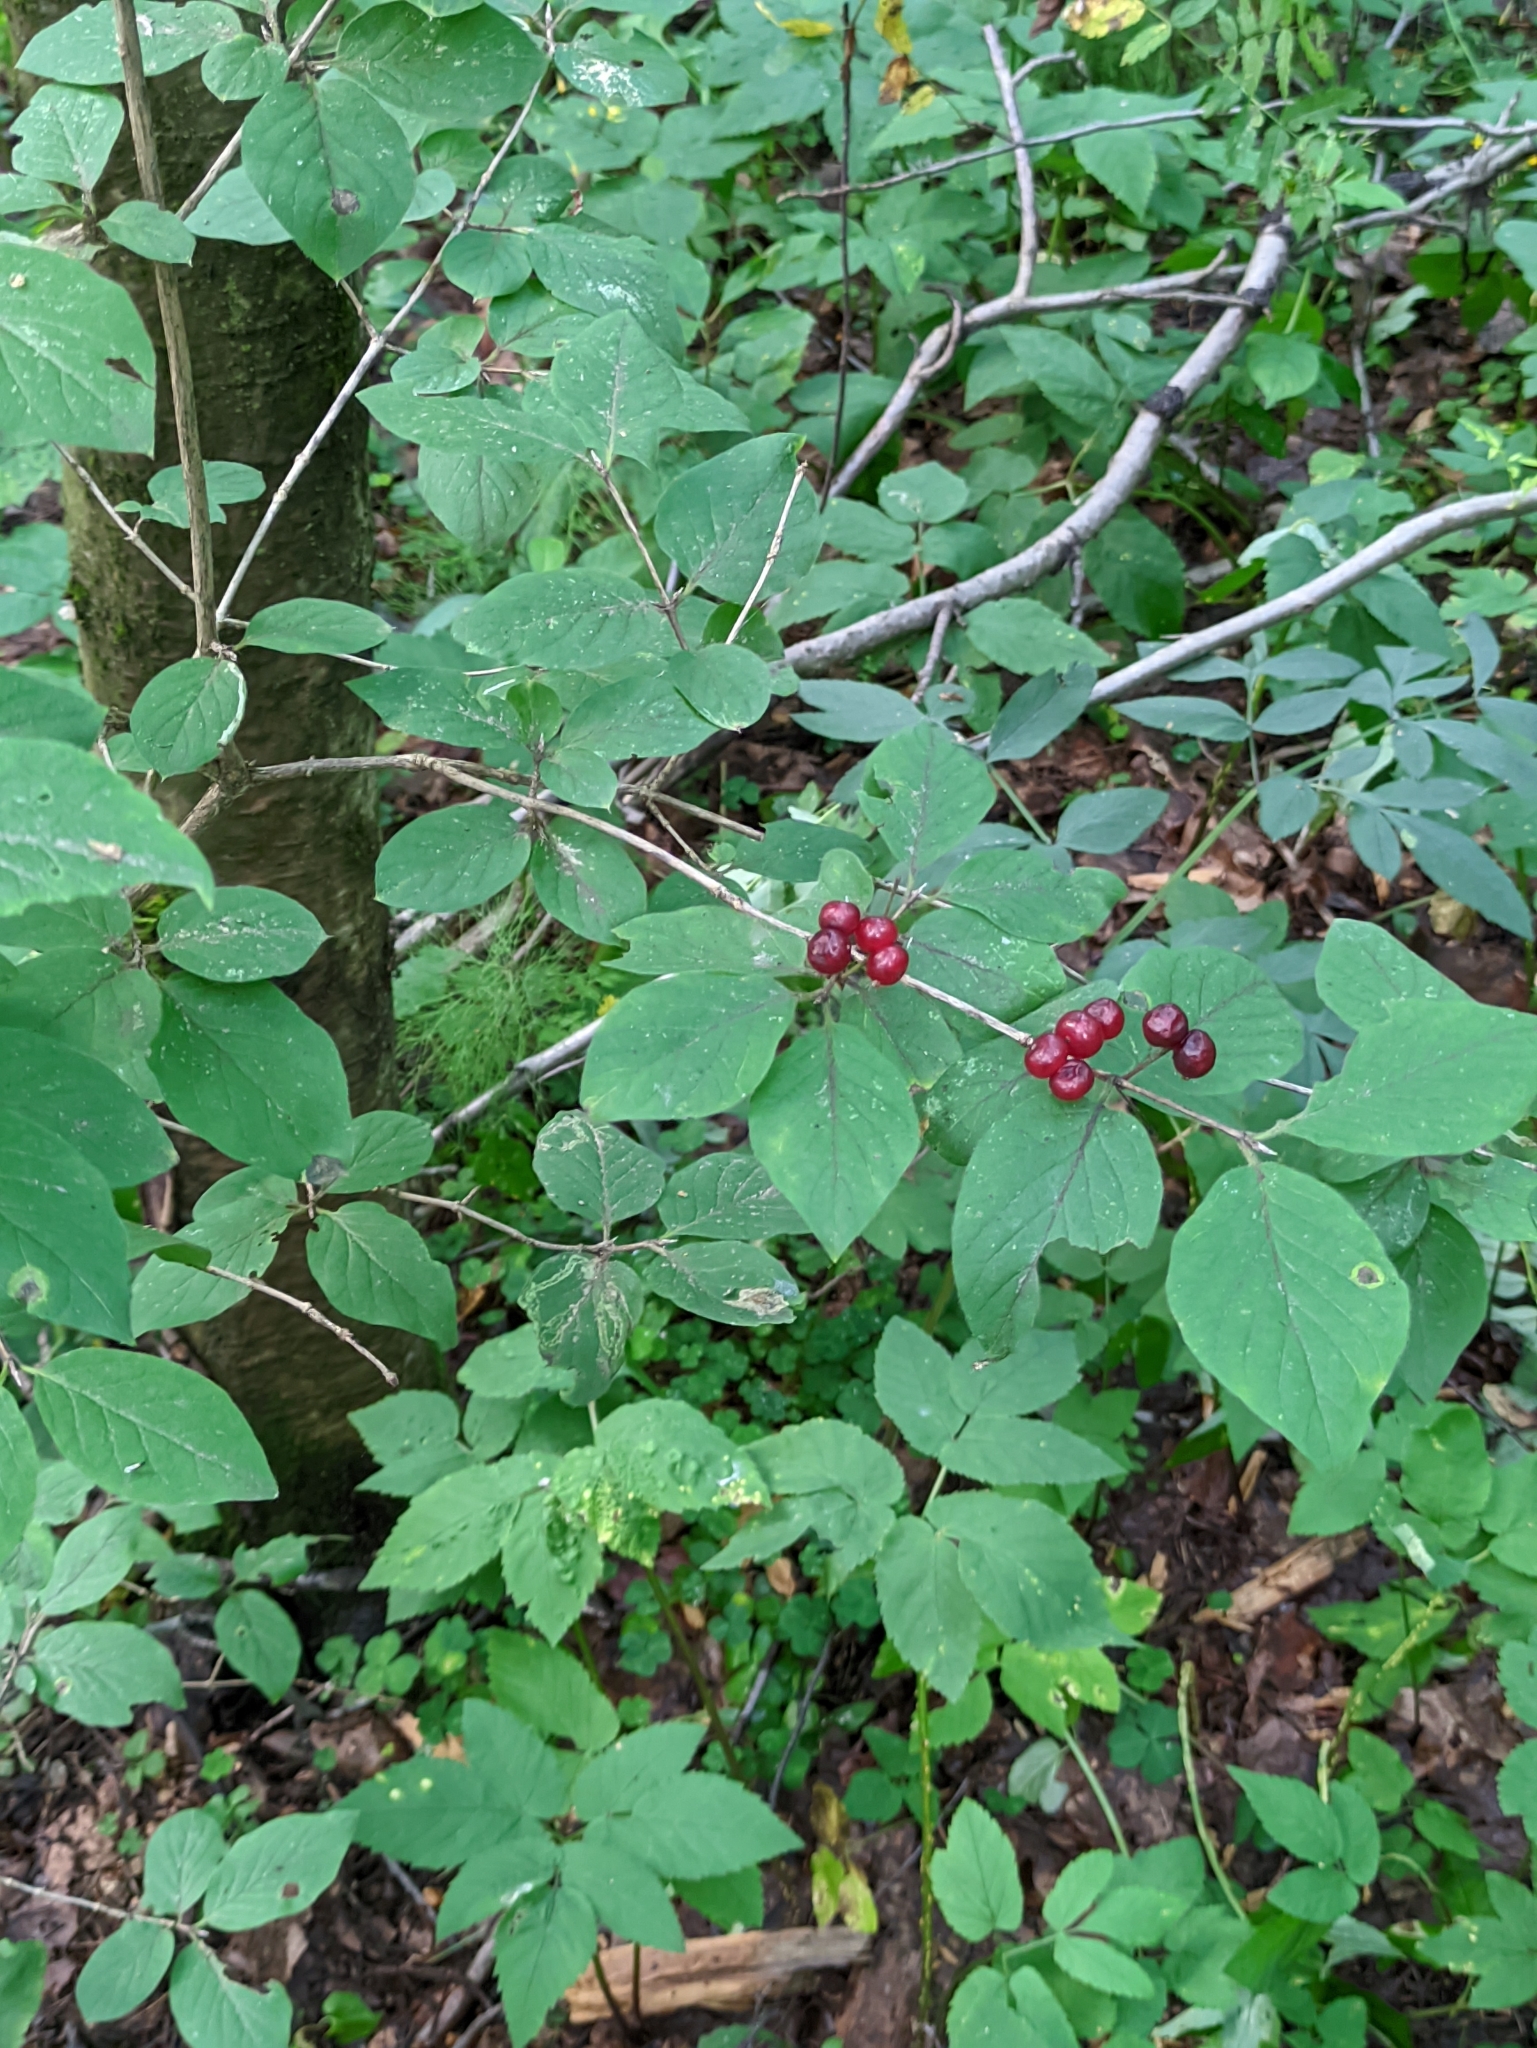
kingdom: Plantae
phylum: Tracheophyta
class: Magnoliopsida
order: Dipsacales
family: Caprifoliaceae
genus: Lonicera
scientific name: Lonicera xylosteum
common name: Fly honeysuckle
